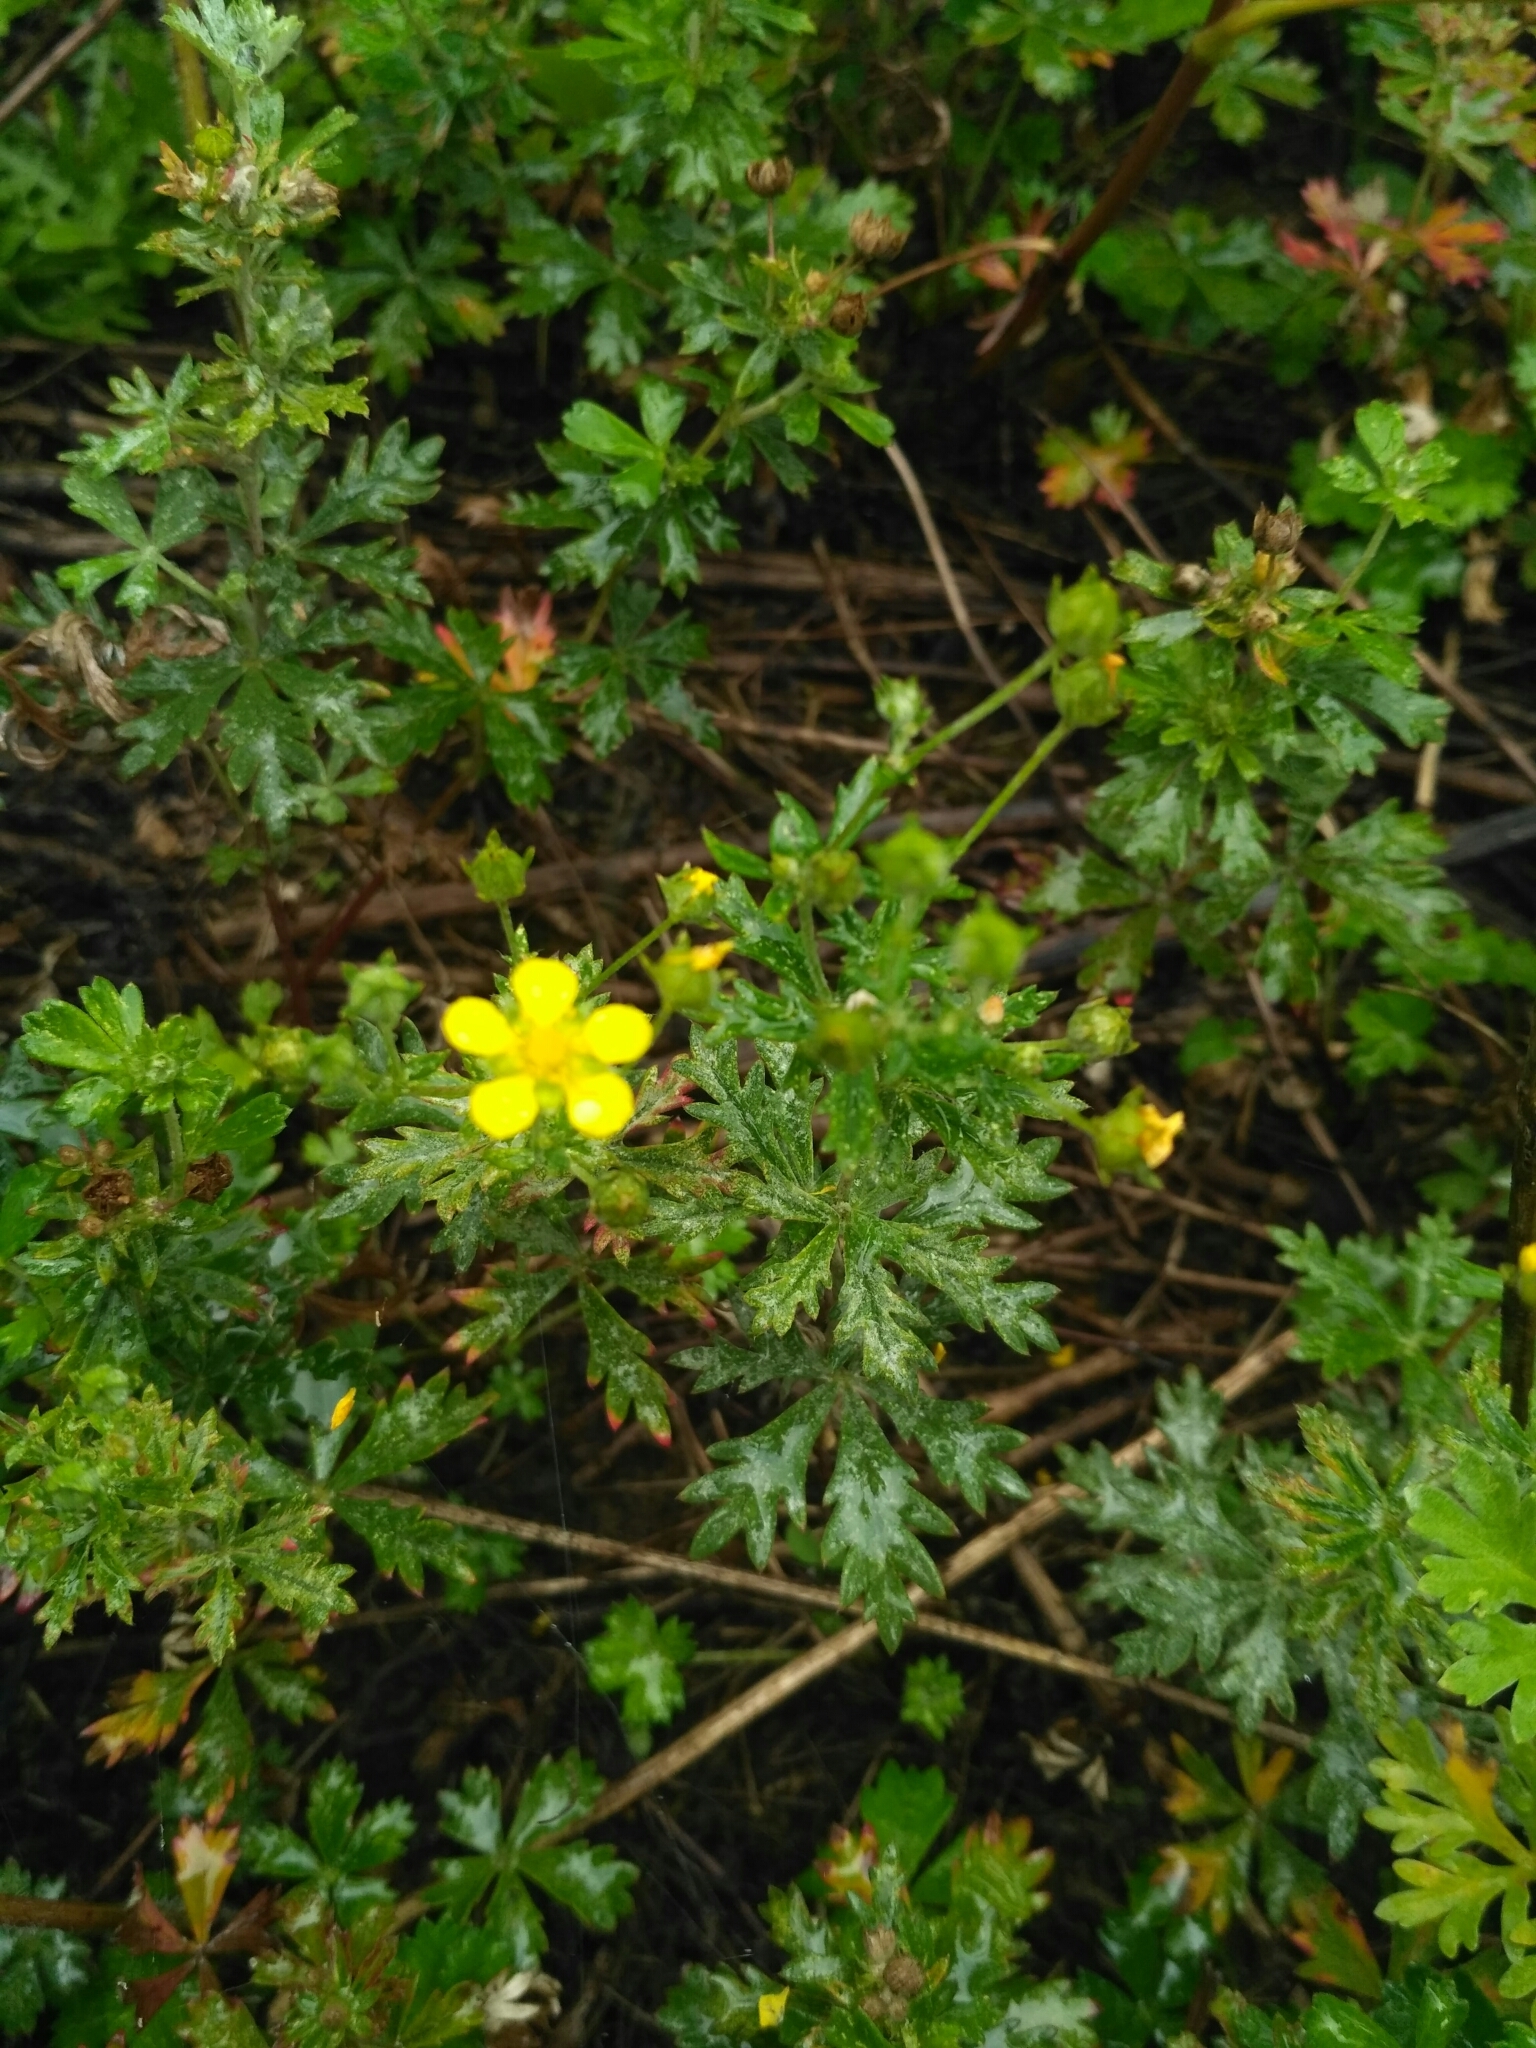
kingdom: Plantae
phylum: Tracheophyta
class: Magnoliopsida
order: Rosales
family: Rosaceae
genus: Potentilla
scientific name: Potentilla argentea
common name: Hoary cinquefoil
